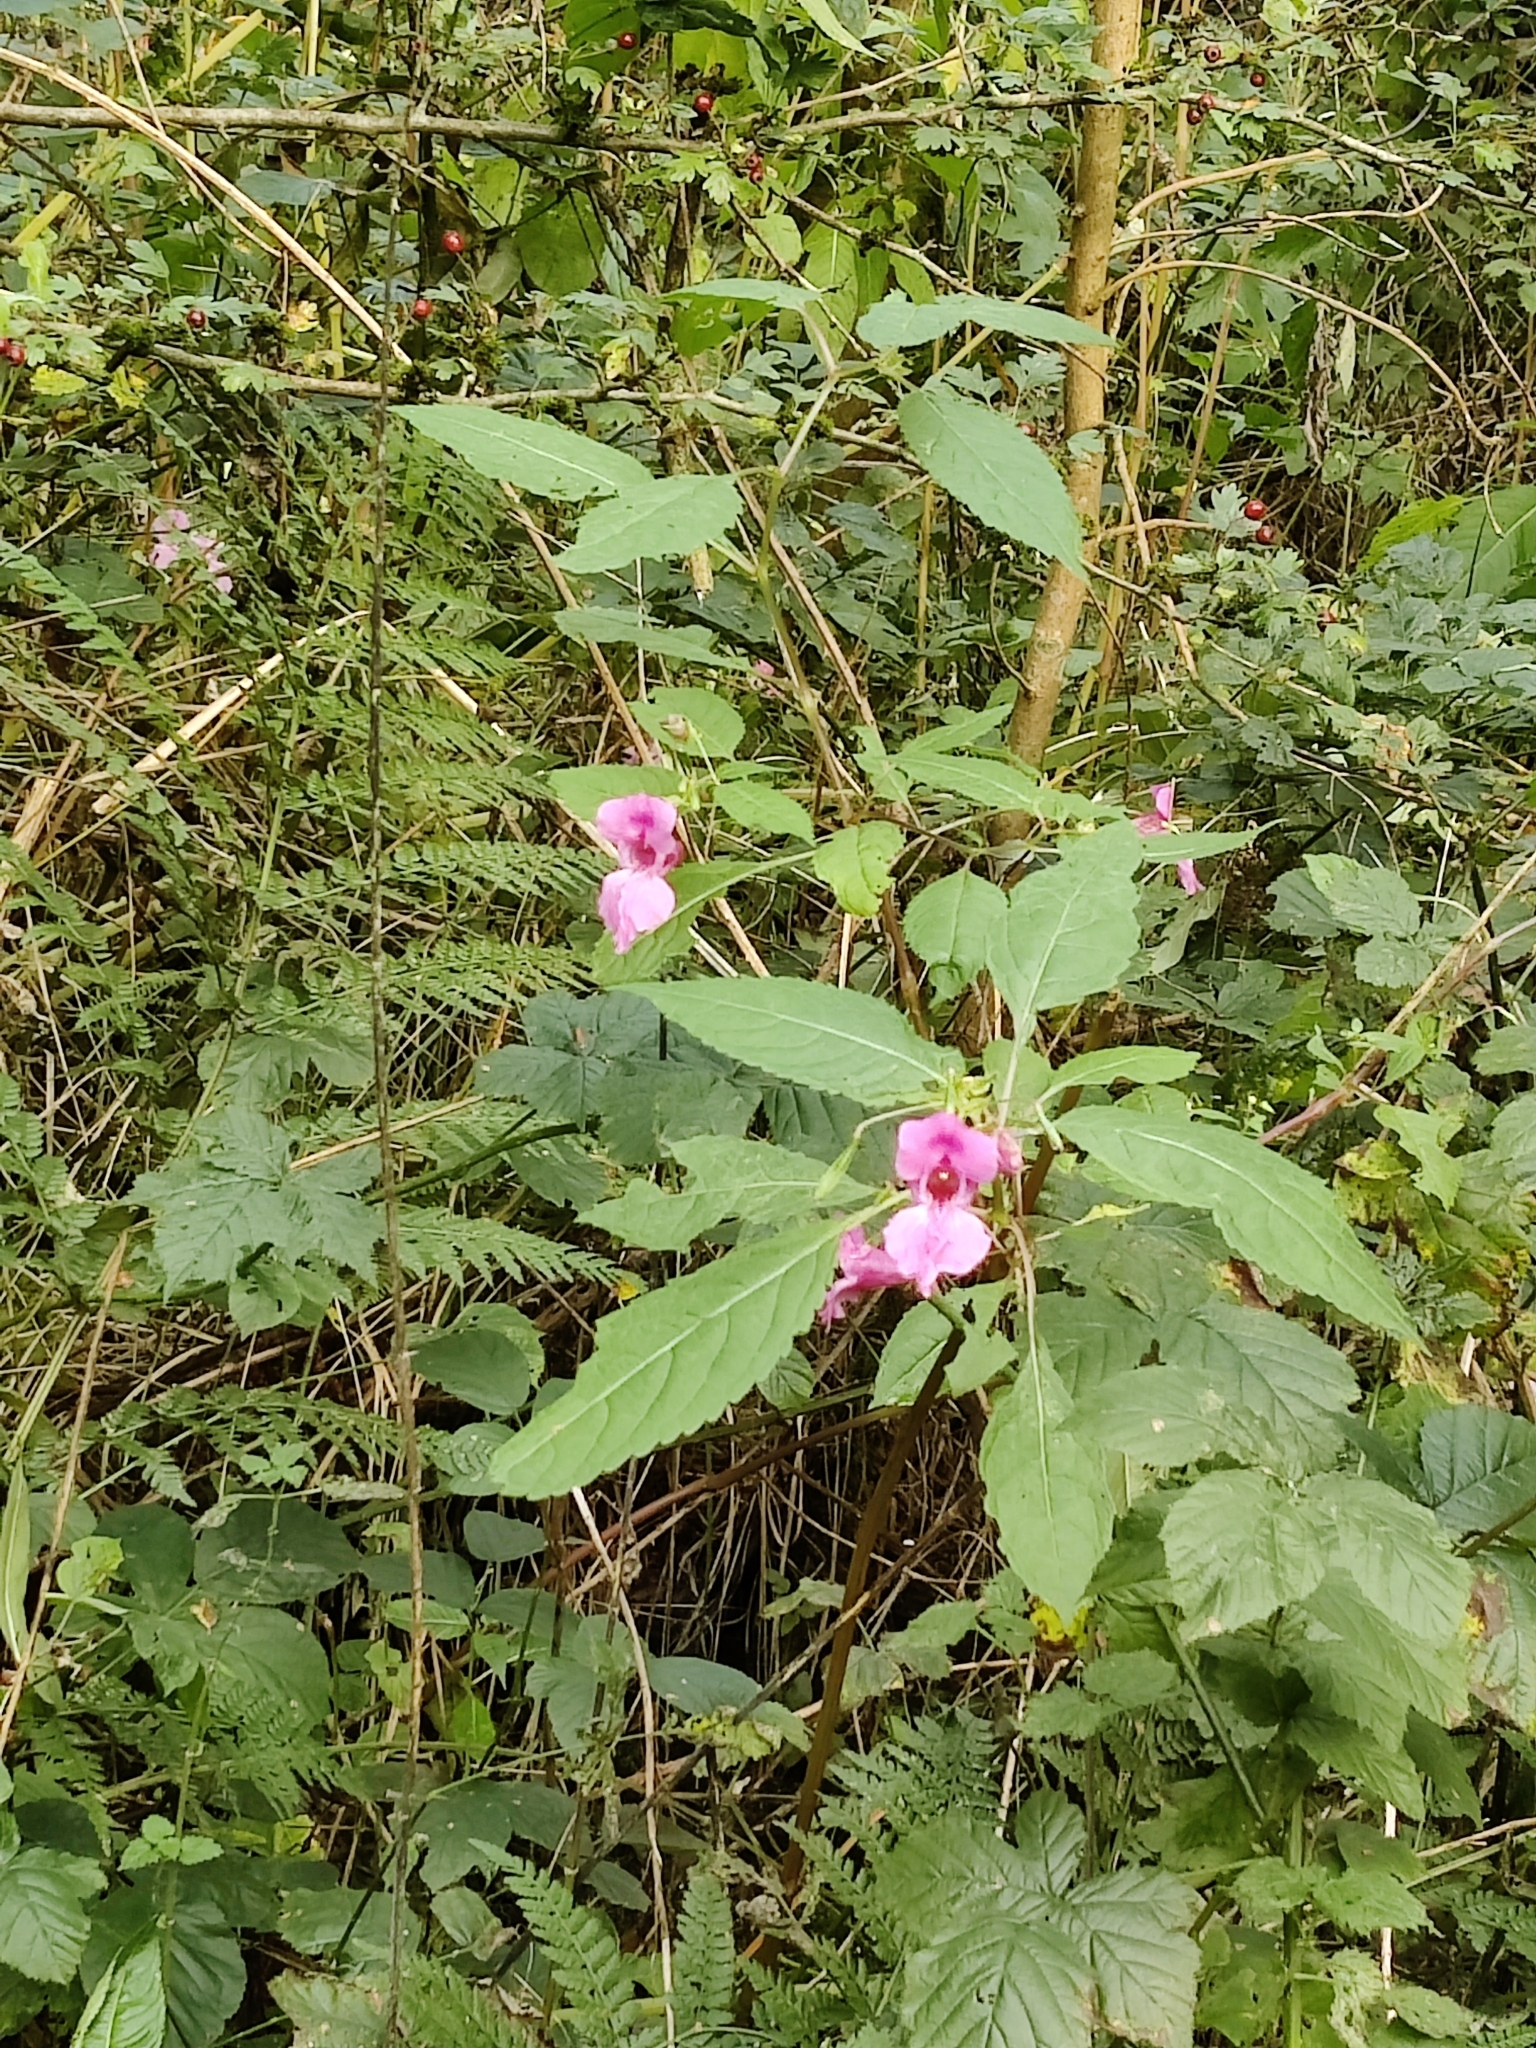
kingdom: Plantae
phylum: Tracheophyta
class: Magnoliopsida
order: Ericales
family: Balsaminaceae
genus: Impatiens
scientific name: Impatiens glandulifera
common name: Himalayan balsam
